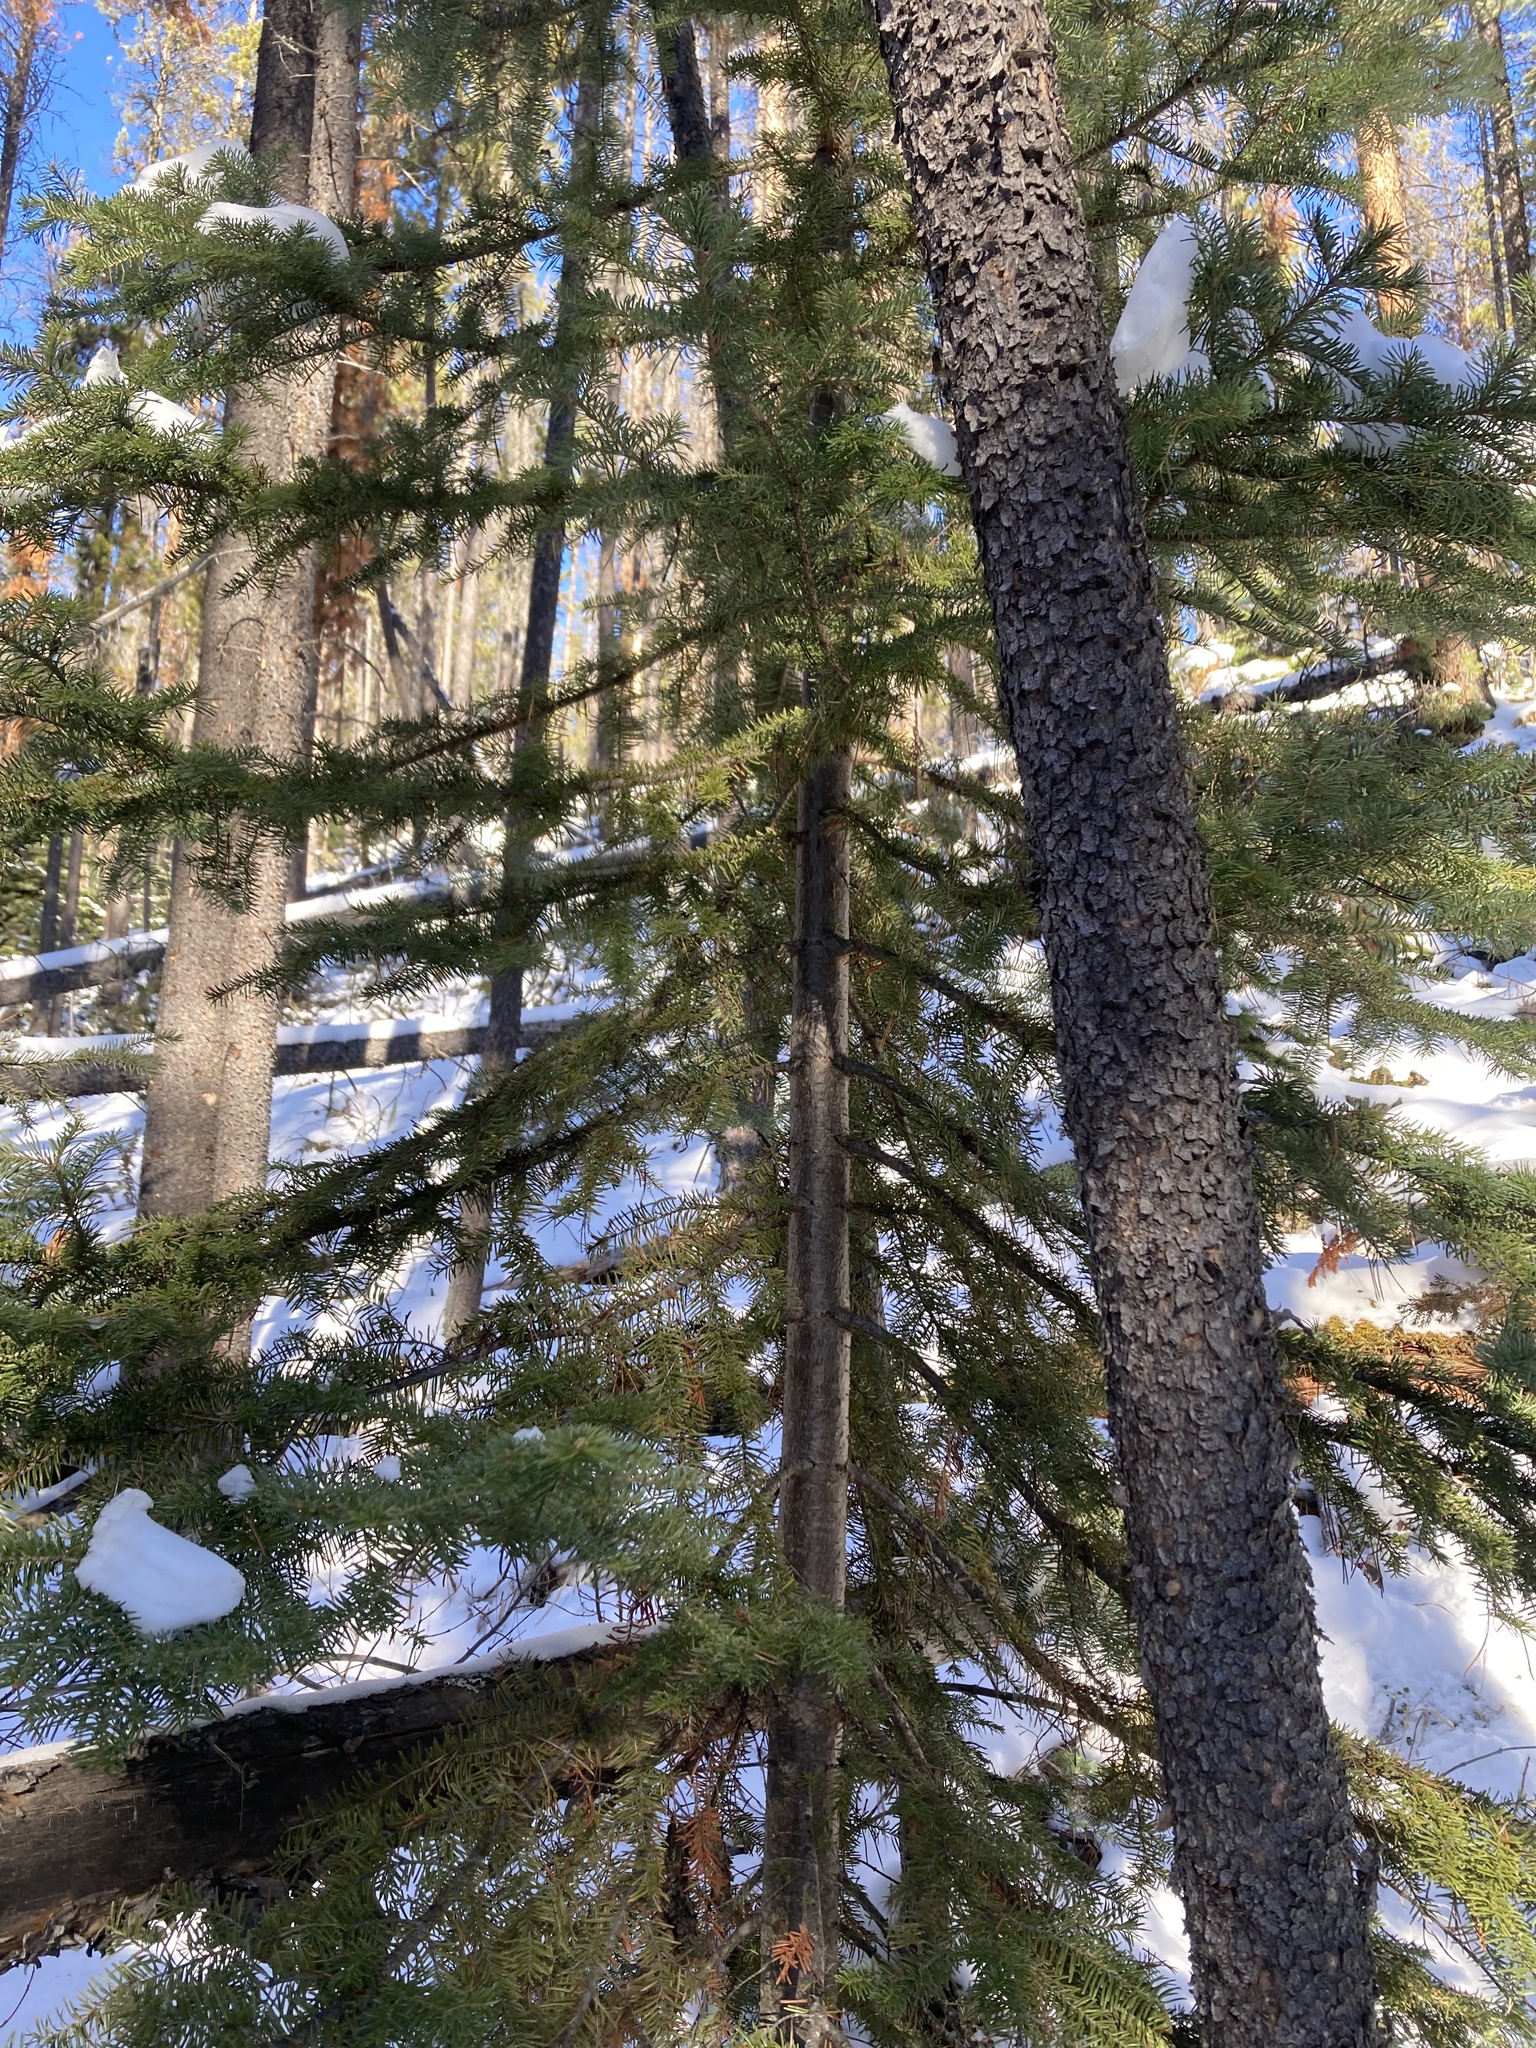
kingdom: Plantae
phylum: Tracheophyta
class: Pinopsida
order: Pinales
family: Pinaceae
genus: Abies
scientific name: Abies lasiocarpa
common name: Subalpine fir
